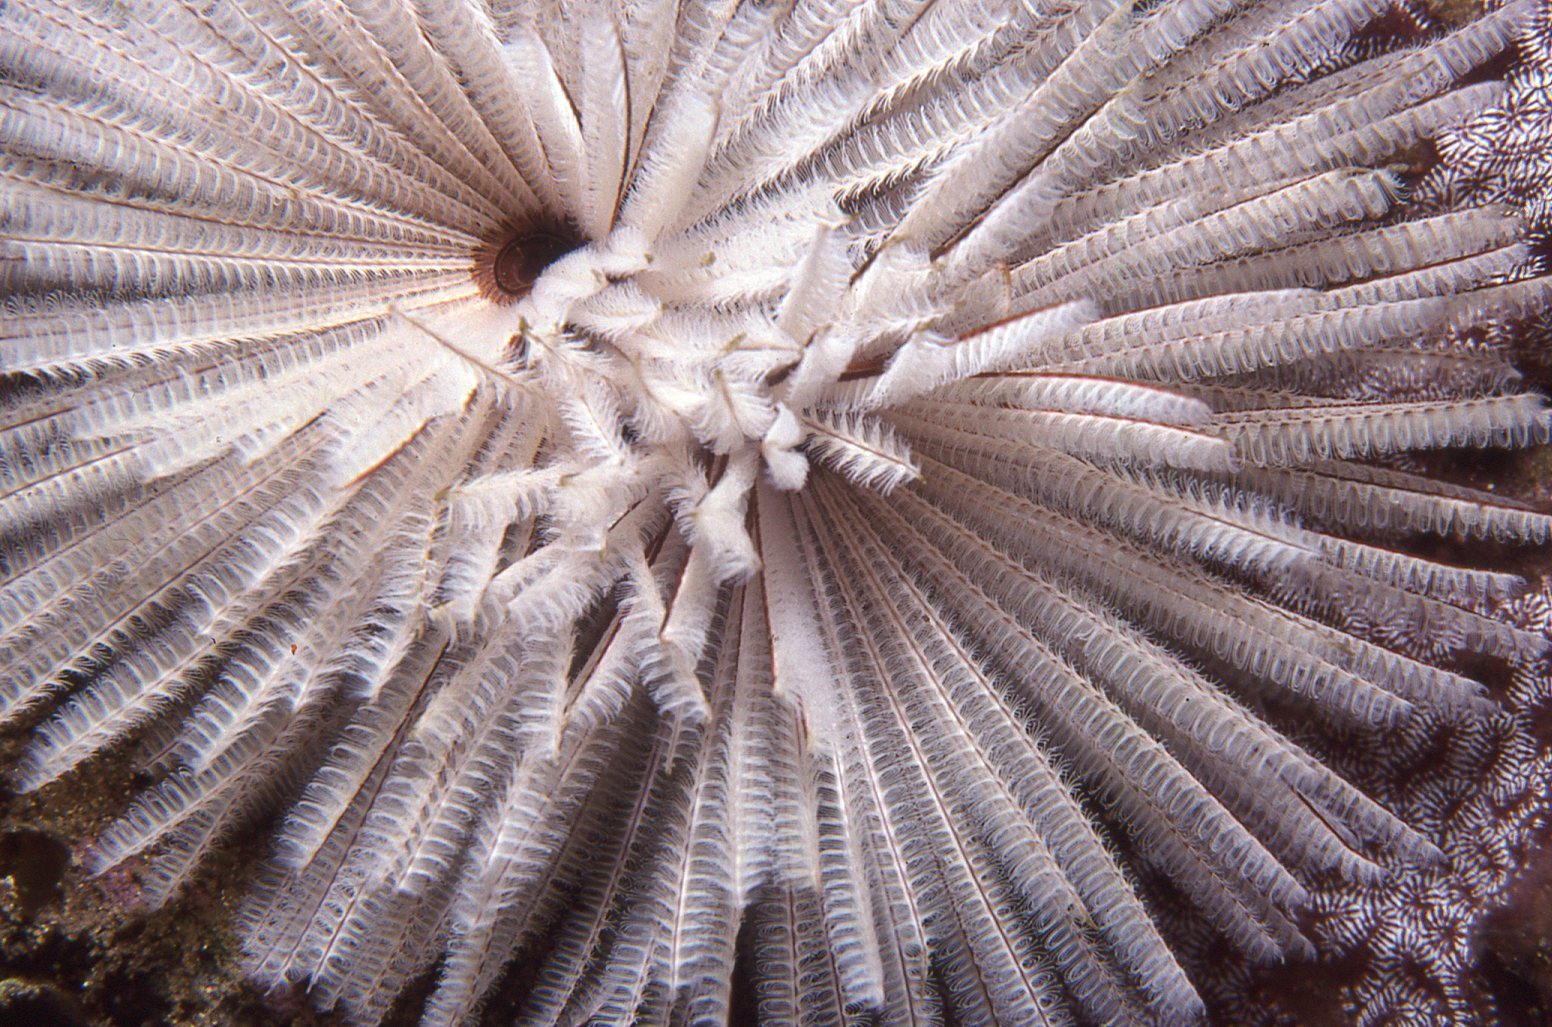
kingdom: Animalia
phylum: Annelida
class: Polychaeta
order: Sabellida
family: Sabellidae
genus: Sabellastarte
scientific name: Sabellastarte australiensis
